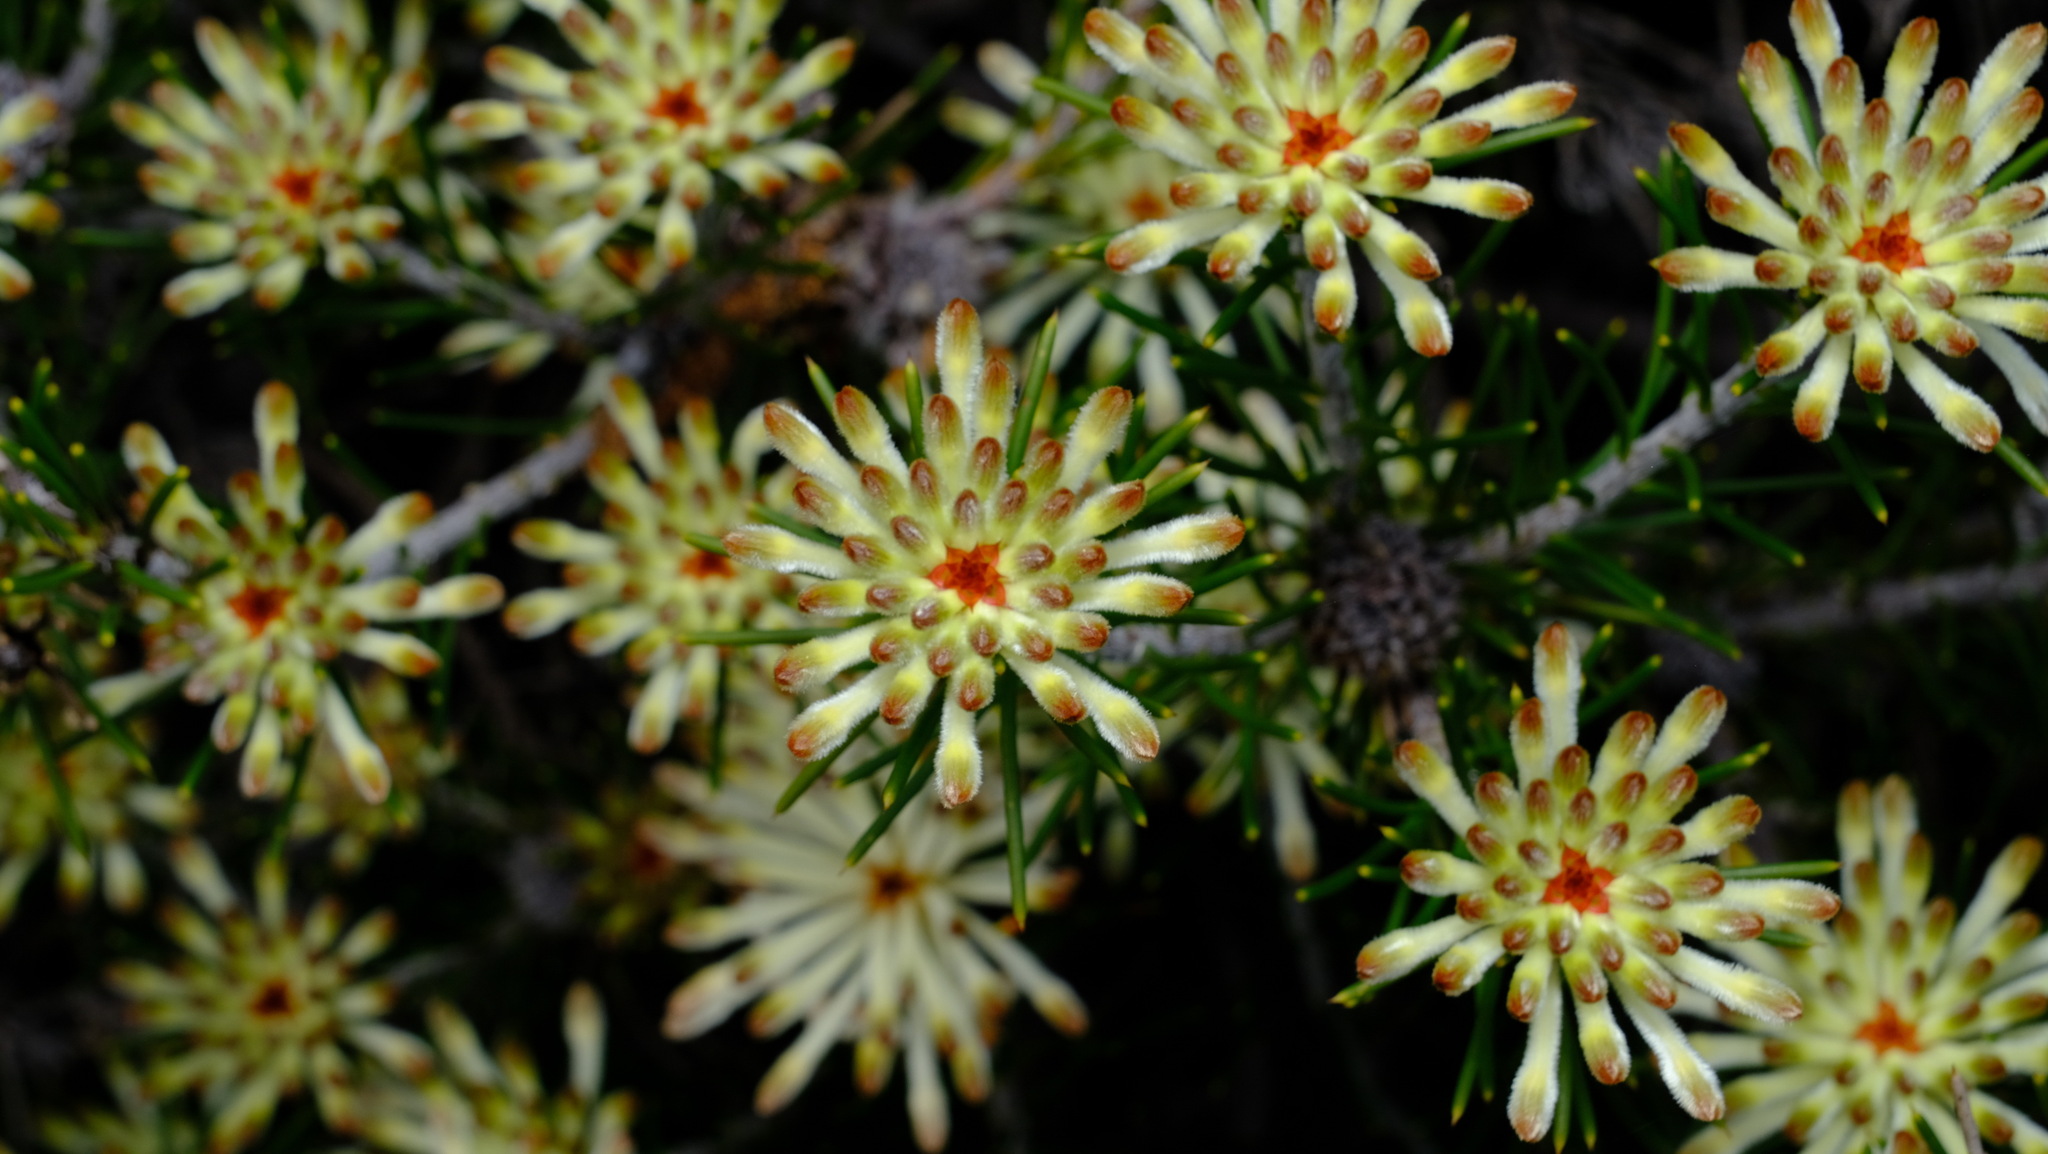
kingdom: Plantae
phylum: Tracheophyta
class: Magnoliopsida
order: Proteales
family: Proteaceae
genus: Petrophile
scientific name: Petrophile brevifolia
